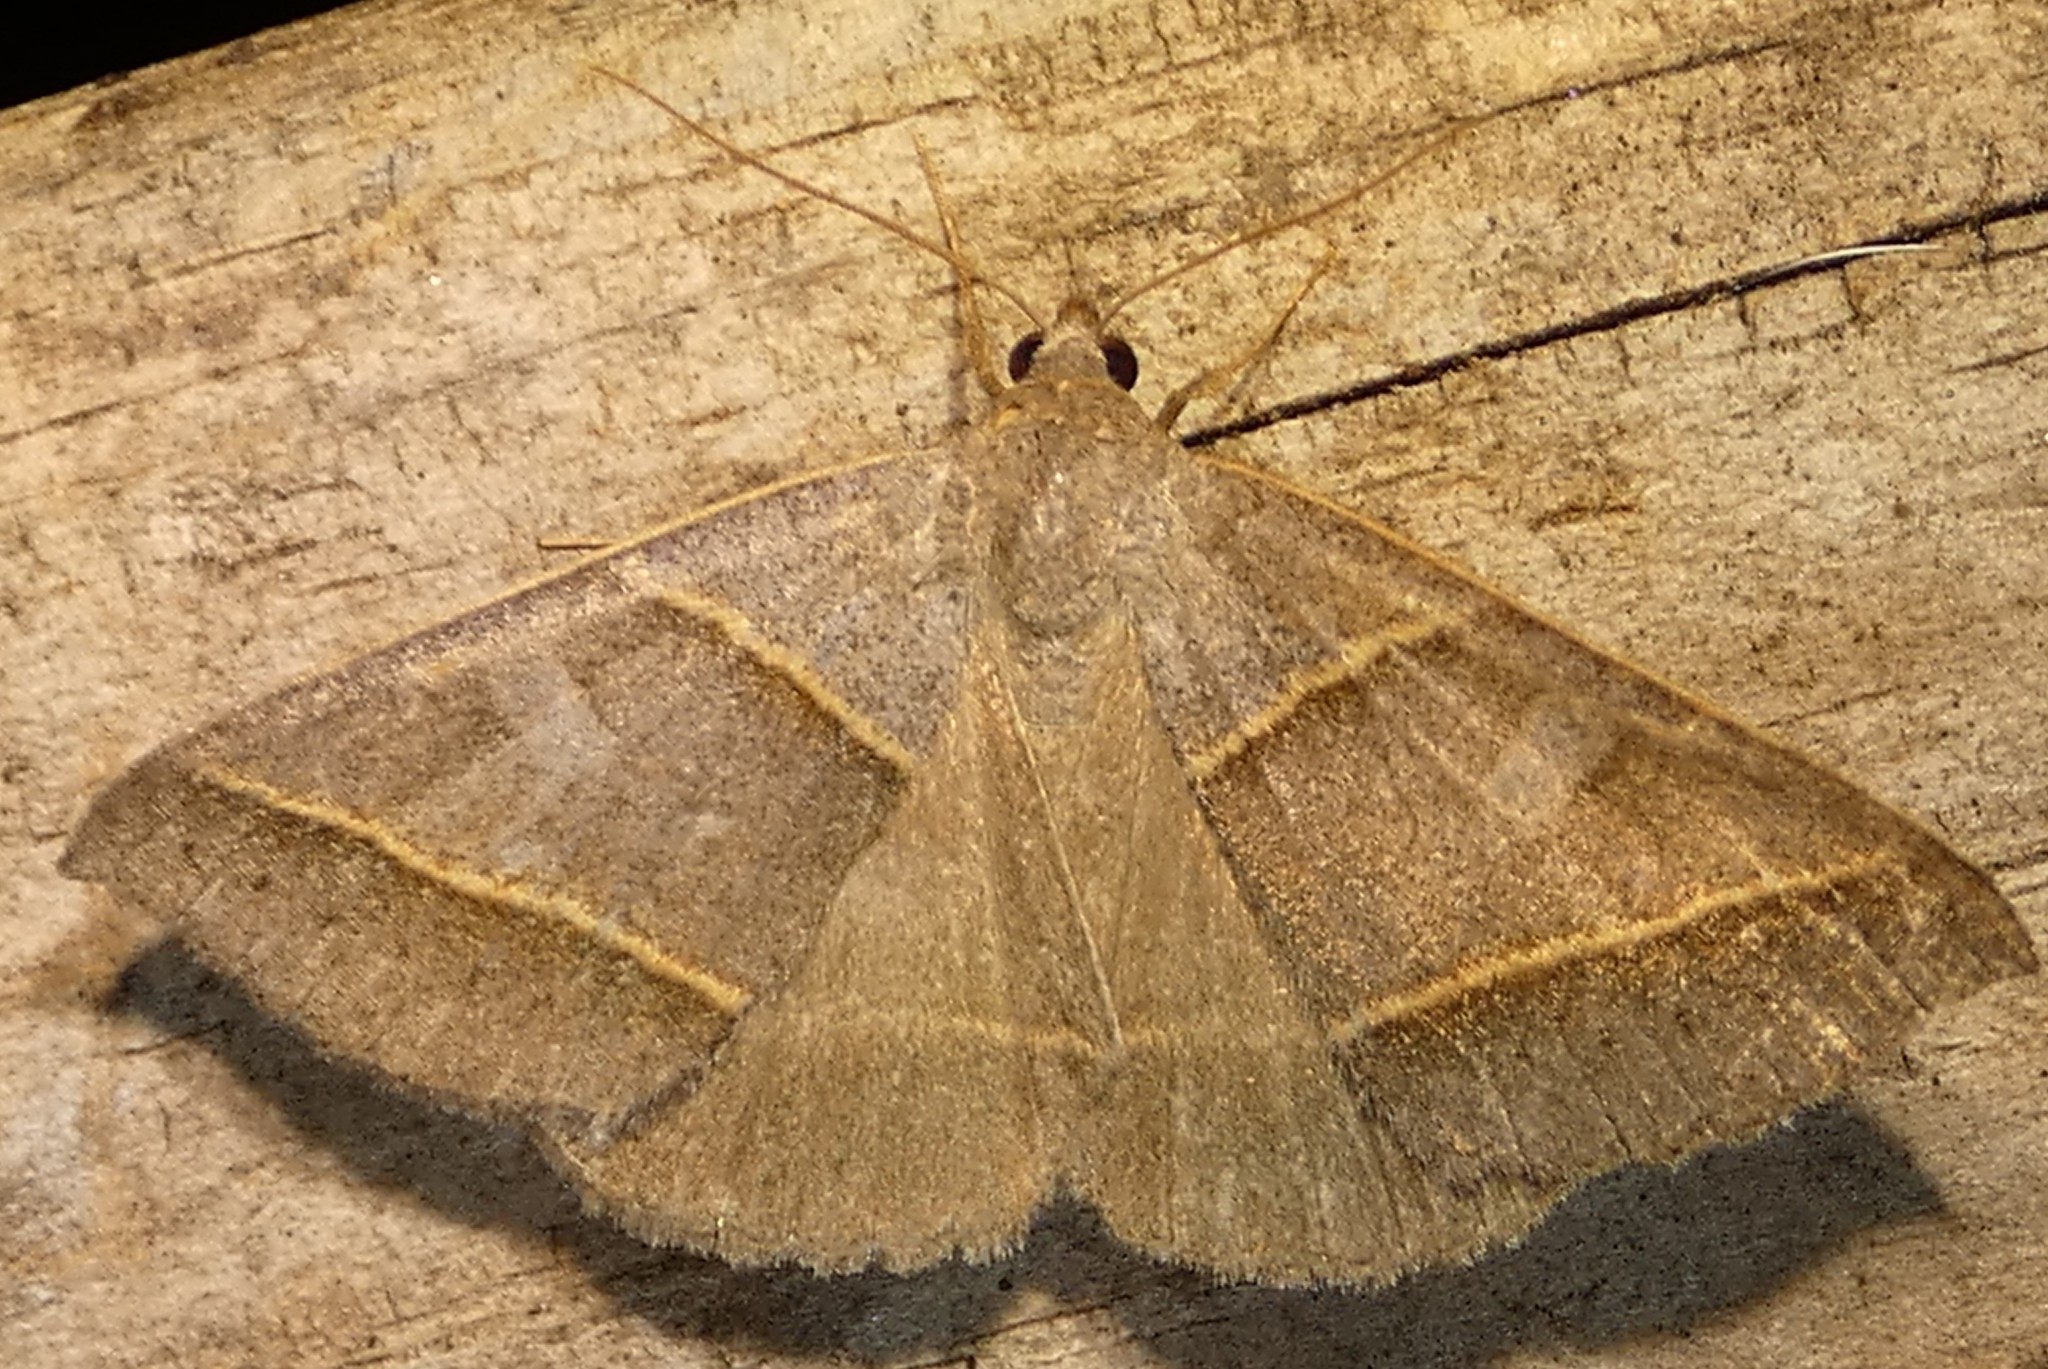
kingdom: Animalia
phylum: Arthropoda
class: Insecta
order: Lepidoptera
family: Erebidae
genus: Ptichodis
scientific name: Ptichodis herbarum
